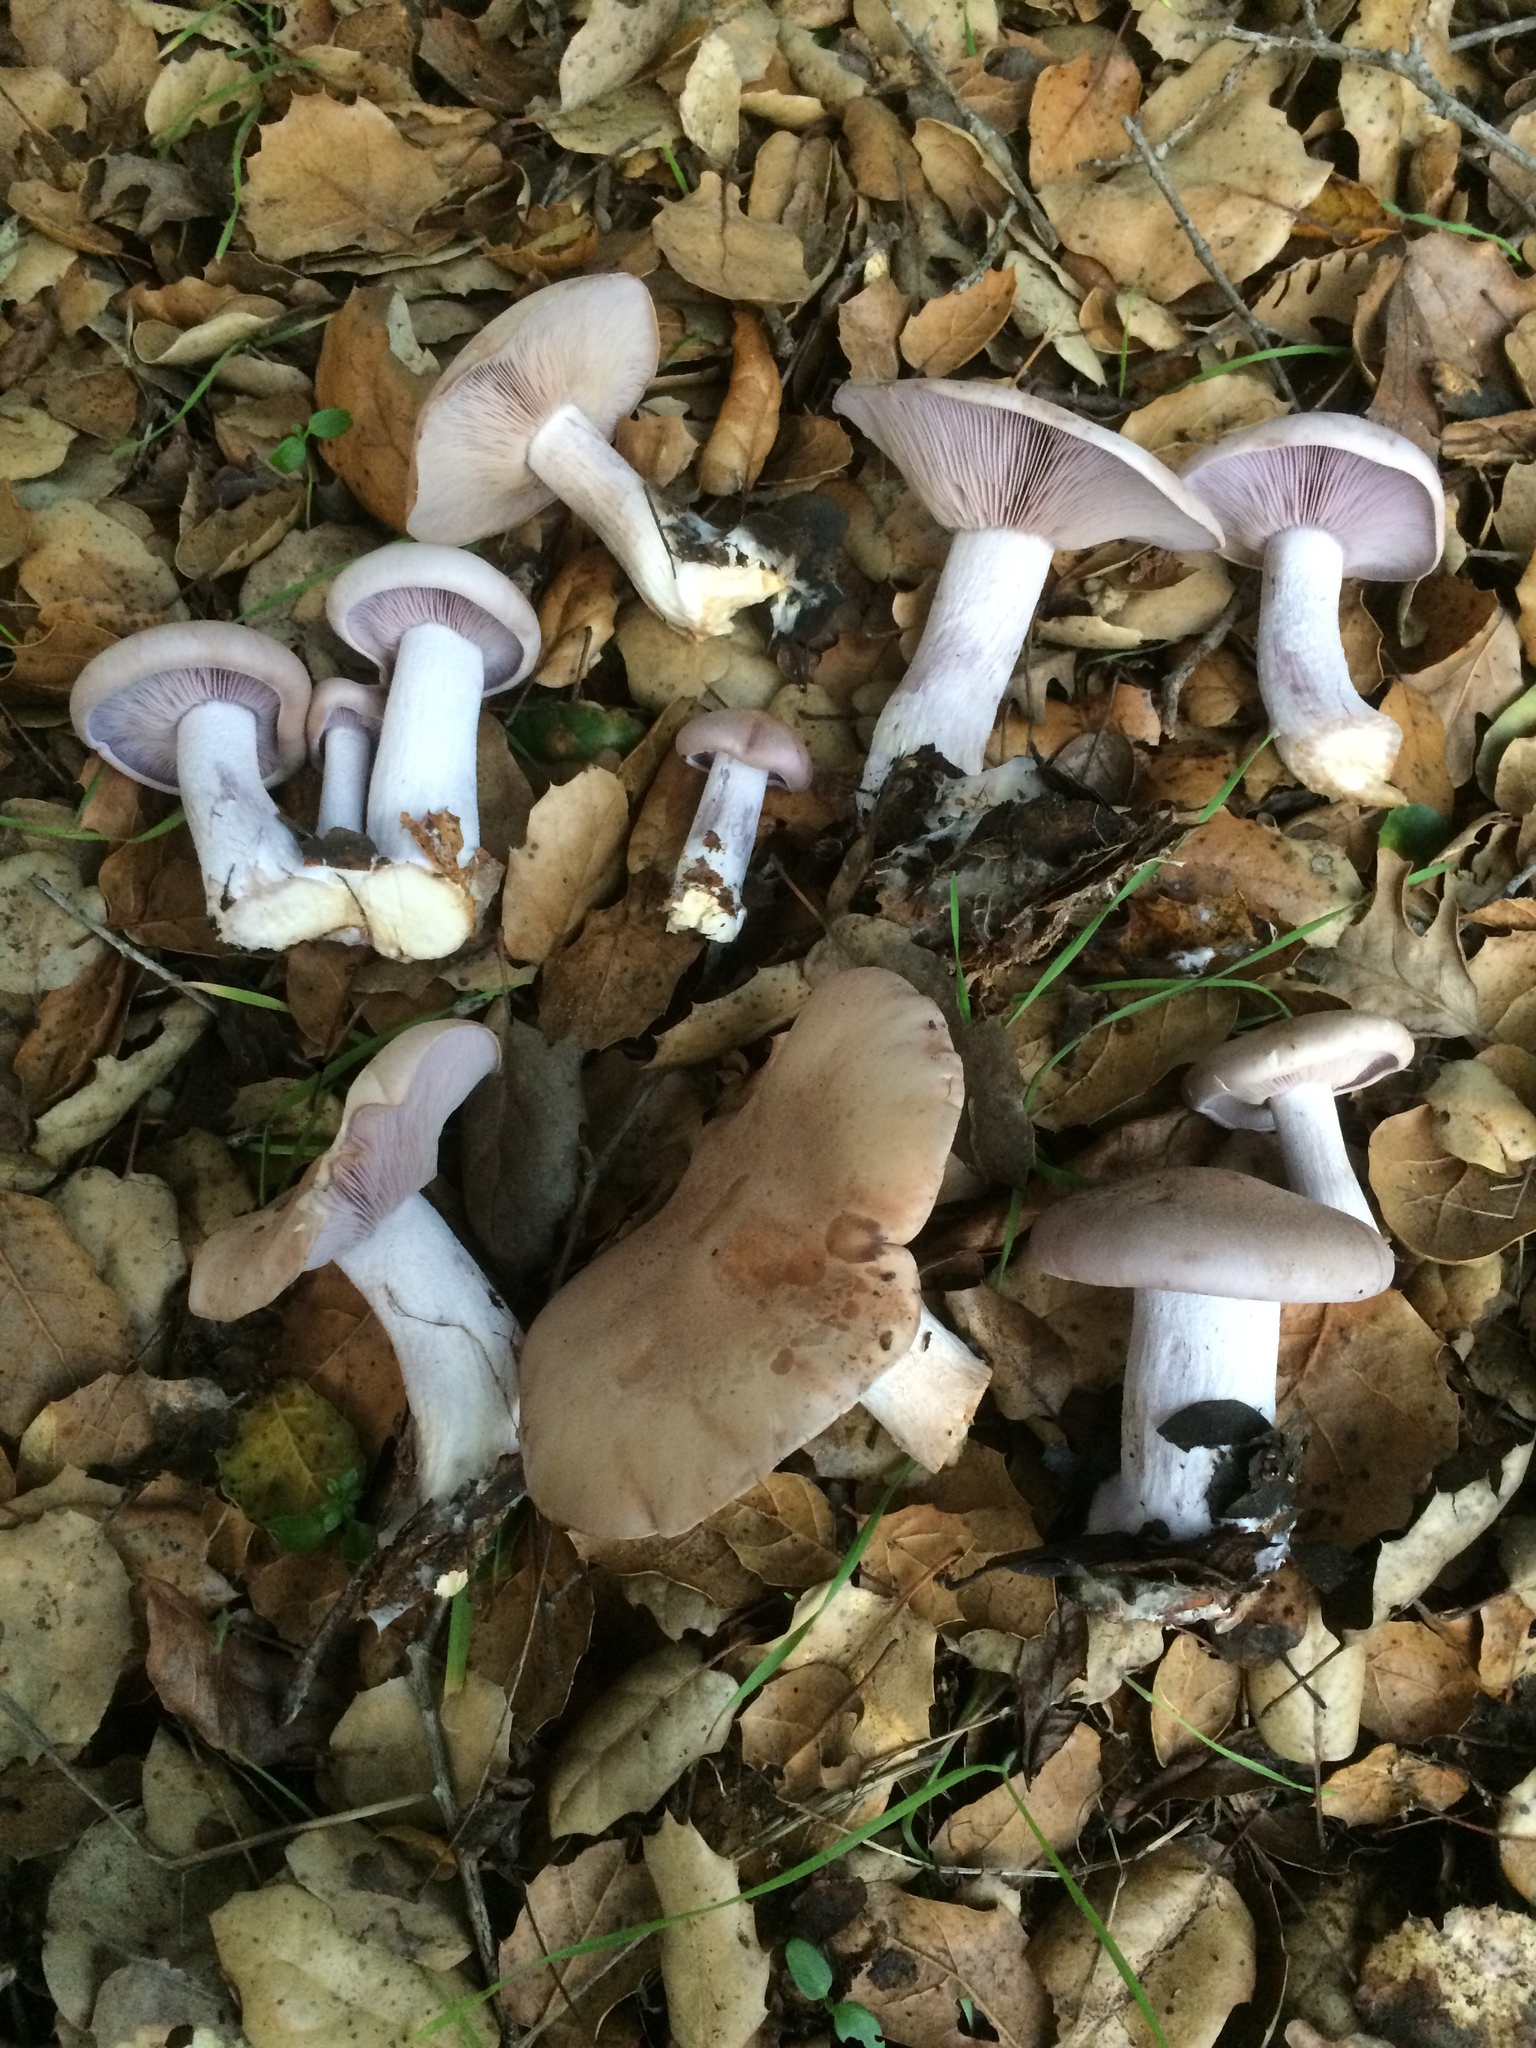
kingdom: Fungi
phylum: Basidiomycota
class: Agaricomycetes
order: Agaricales
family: Tricholomataceae
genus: Collybia
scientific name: Collybia
